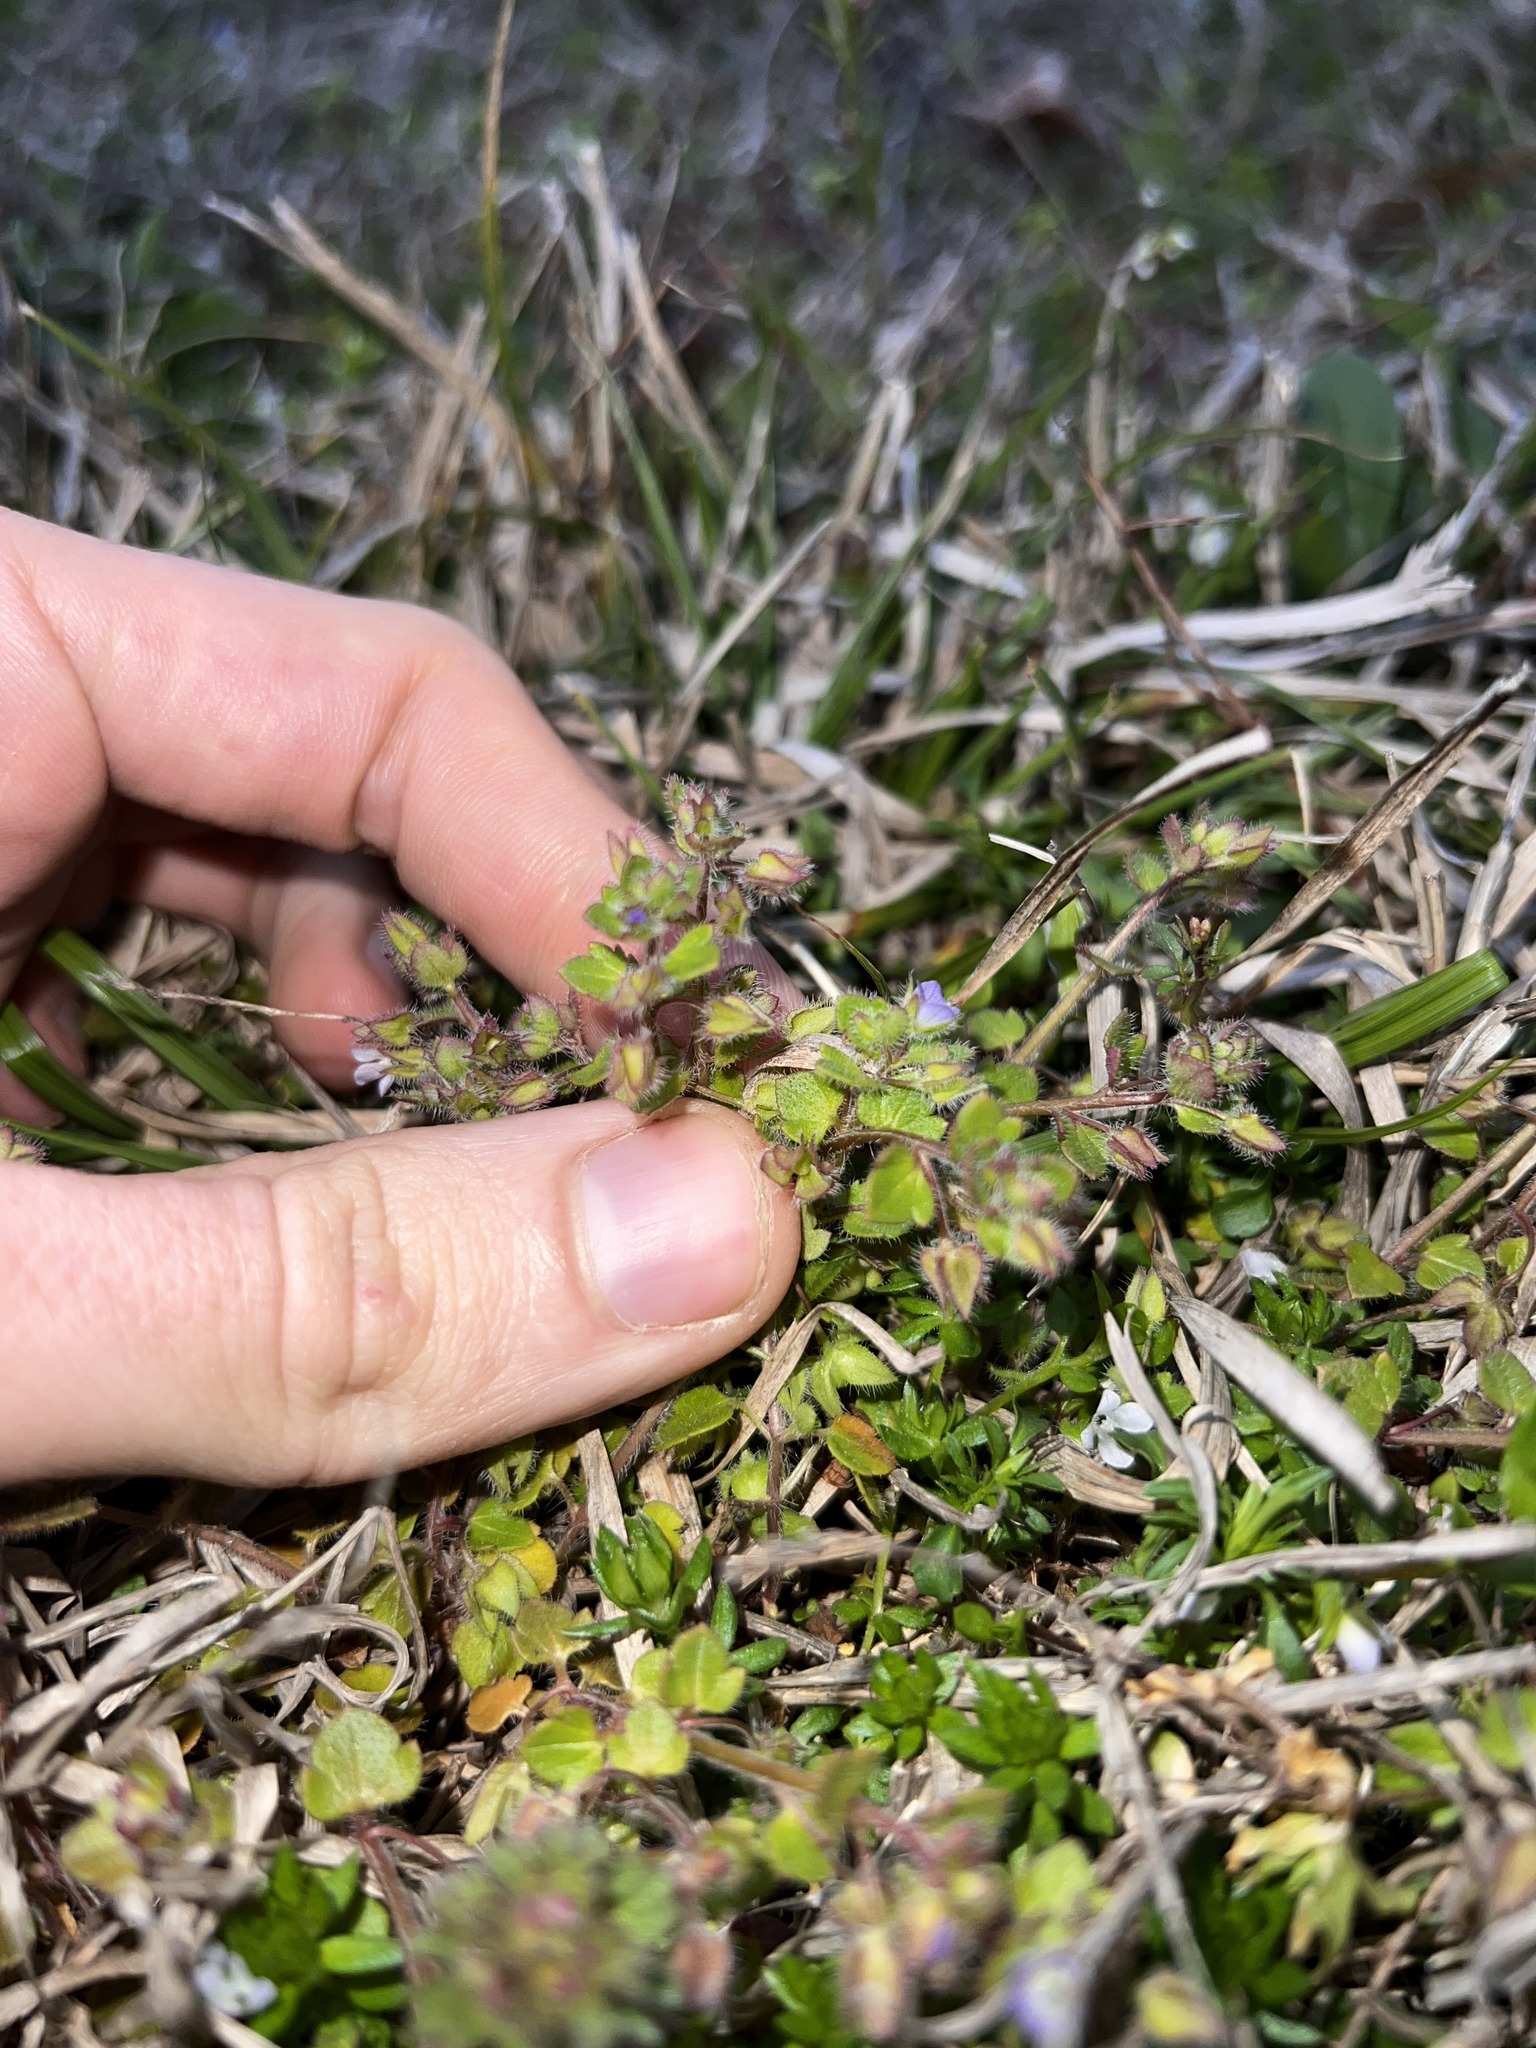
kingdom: Plantae
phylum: Tracheophyta
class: Magnoliopsida
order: Lamiales
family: Plantaginaceae
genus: Veronica
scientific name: Veronica hederifolia
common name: Ivy-leaved speedwell
